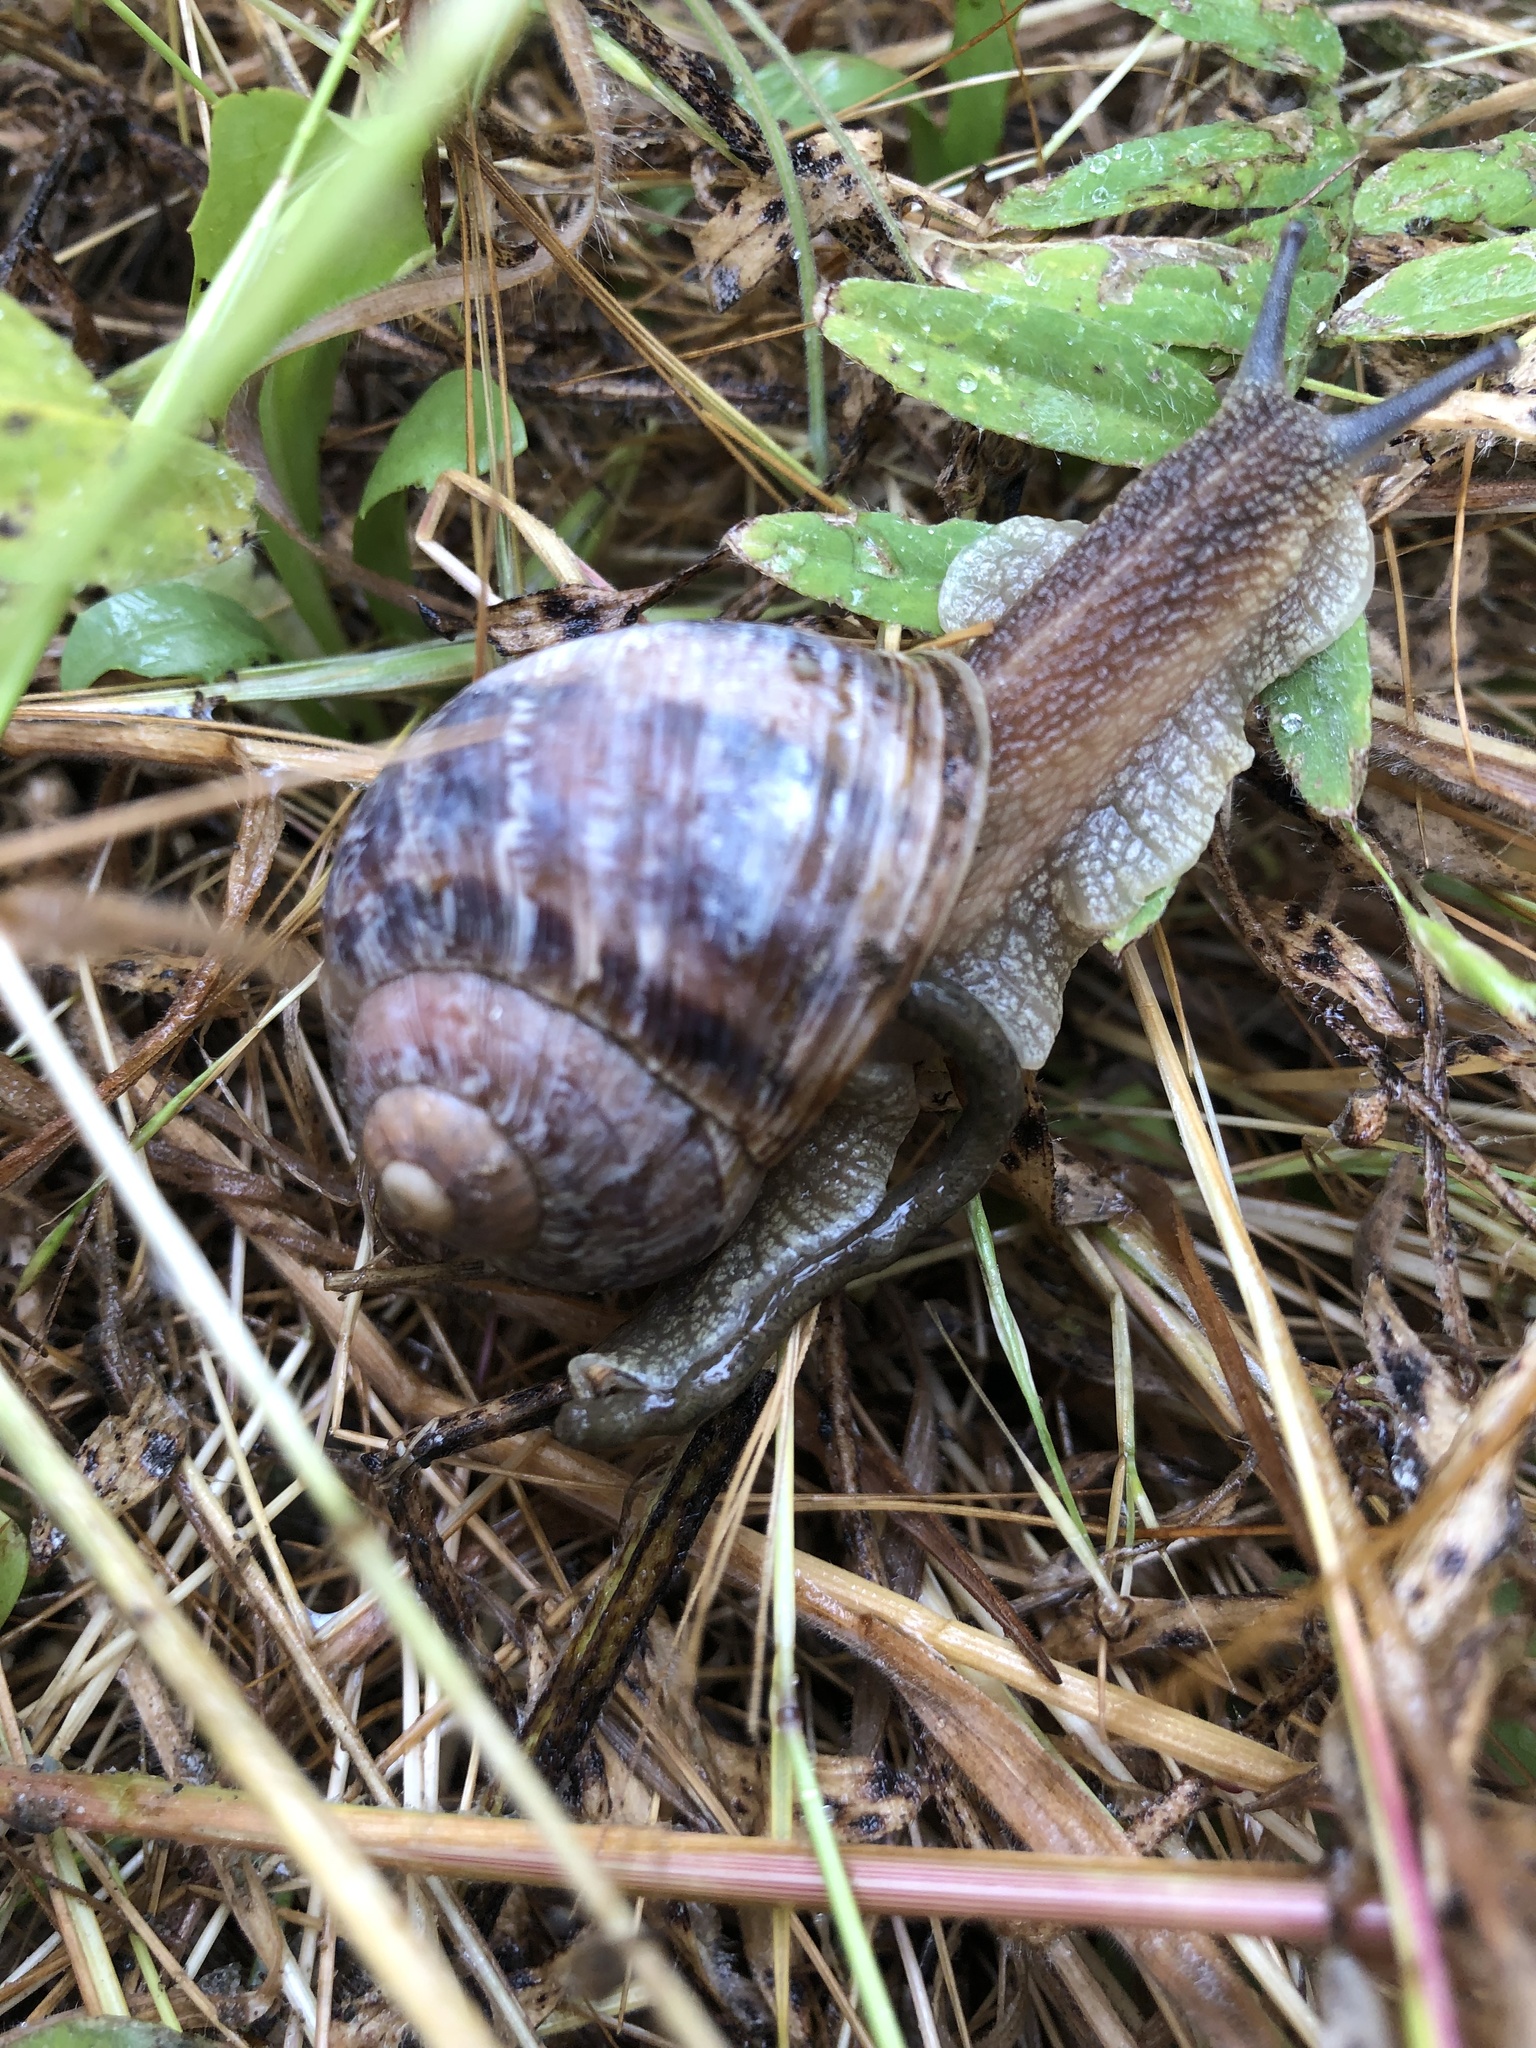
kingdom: Animalia
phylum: Mollusca
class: Gastropoda
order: Stylommatophora
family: Helicidae
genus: Cornu
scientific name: Cornu aspersum
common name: Brown garden snail
